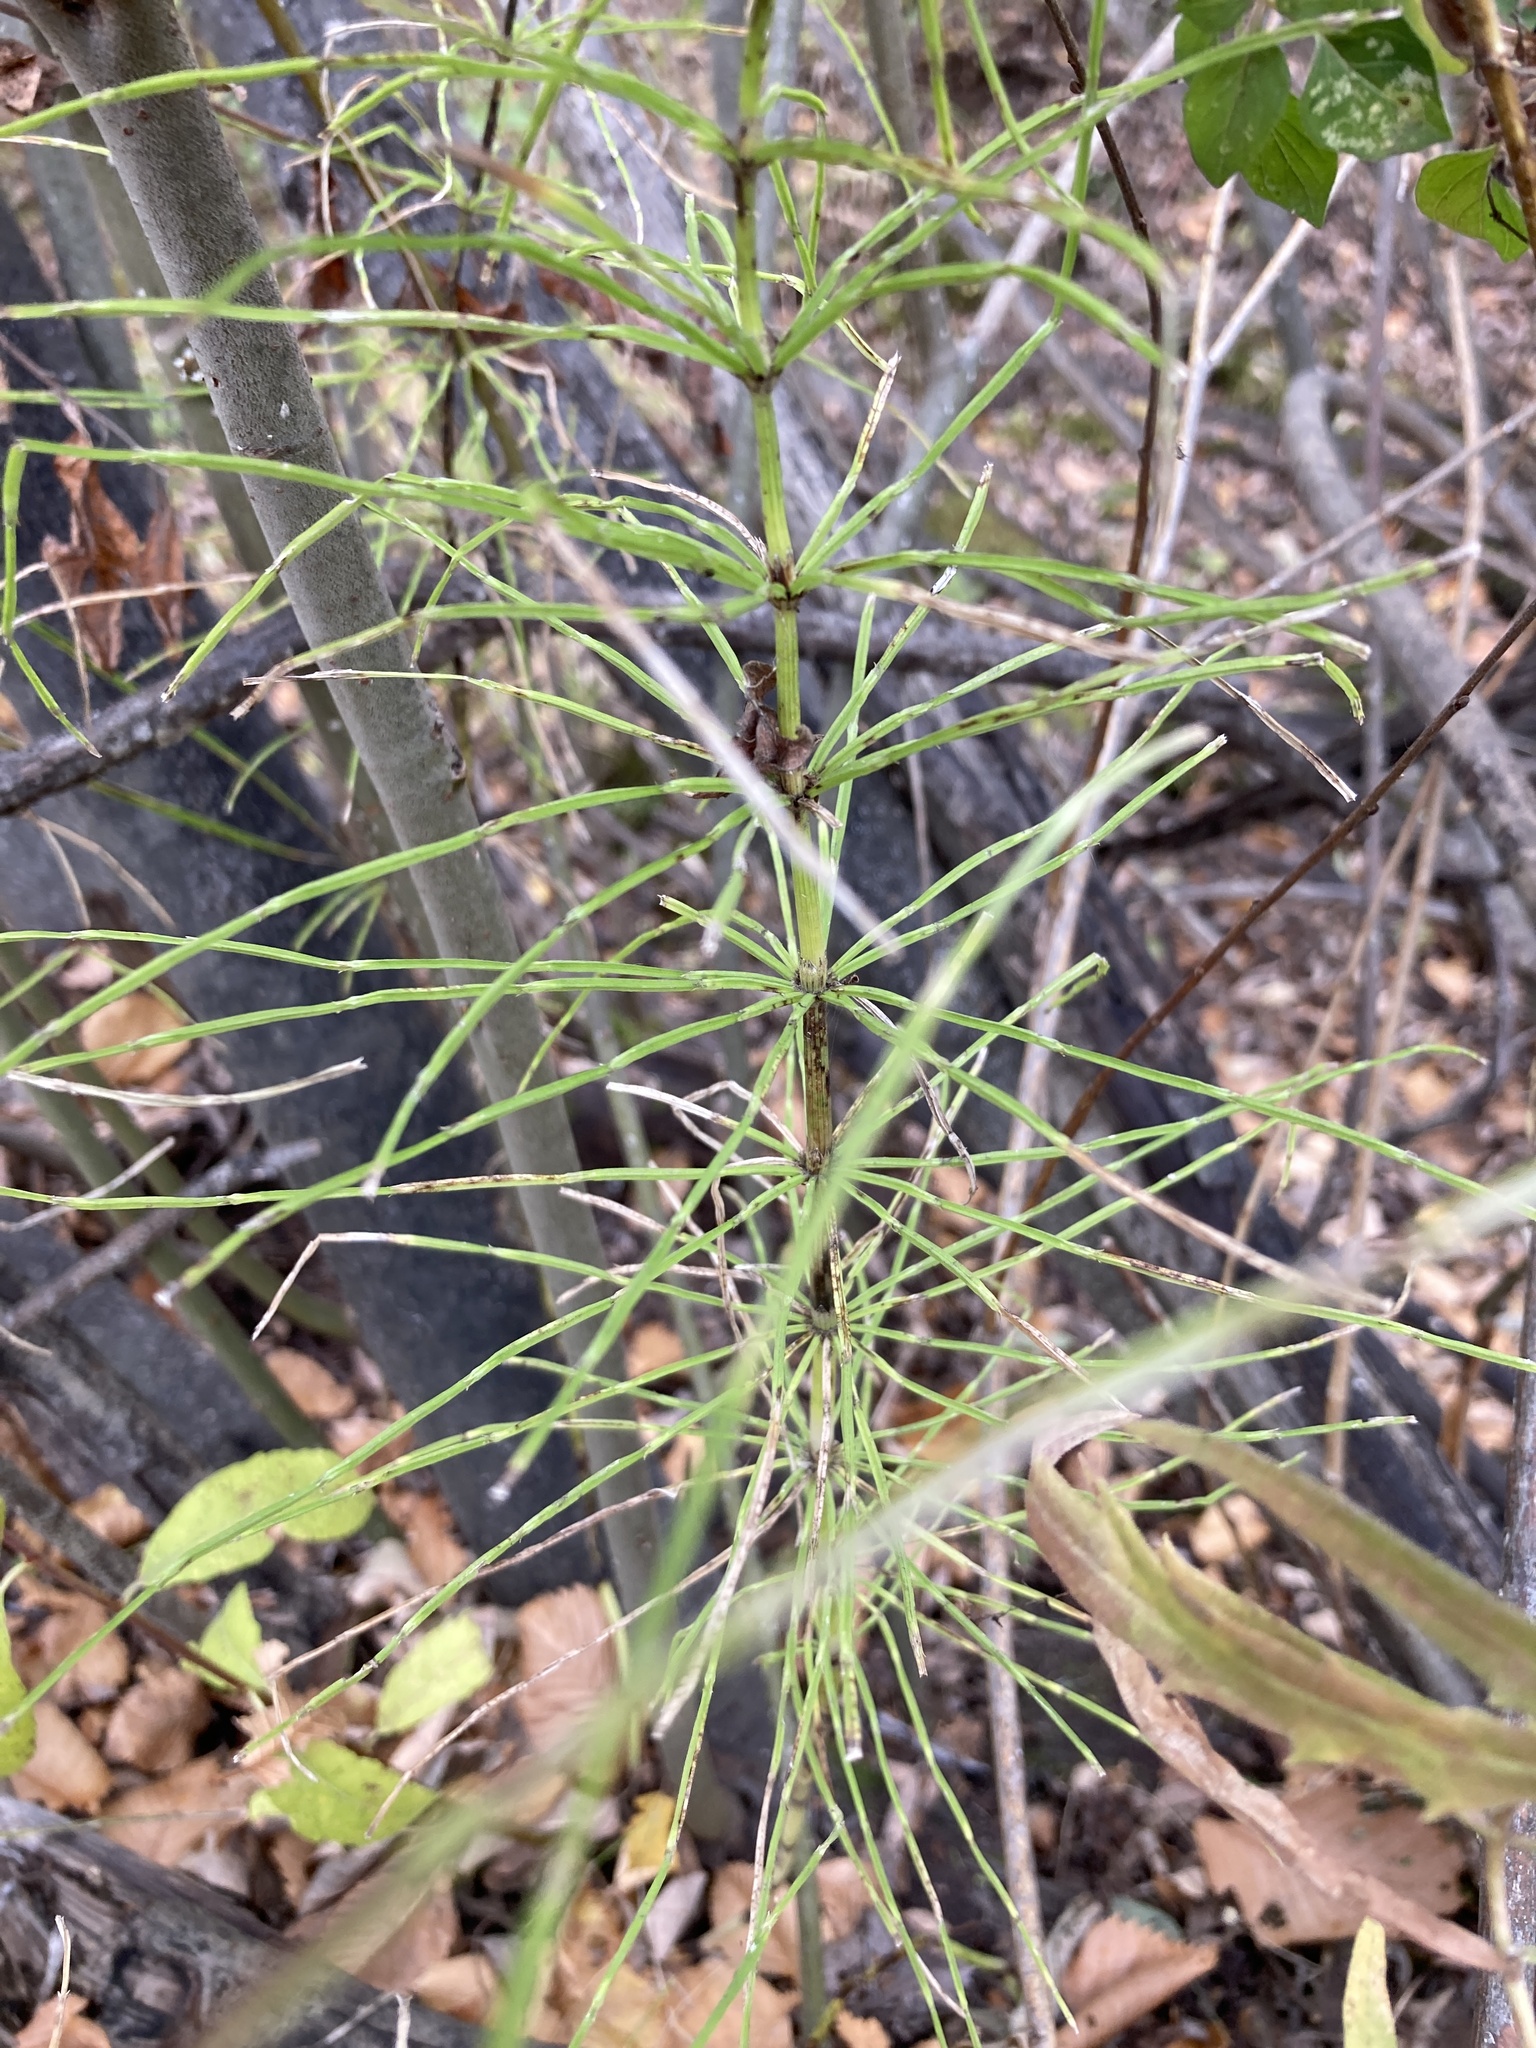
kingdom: Plantae
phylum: Tracheophyta
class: Polypodiopsida
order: Equisetales
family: Equisetaceae
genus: Equisetum
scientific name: Equisetum arvense
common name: Field horsetail
